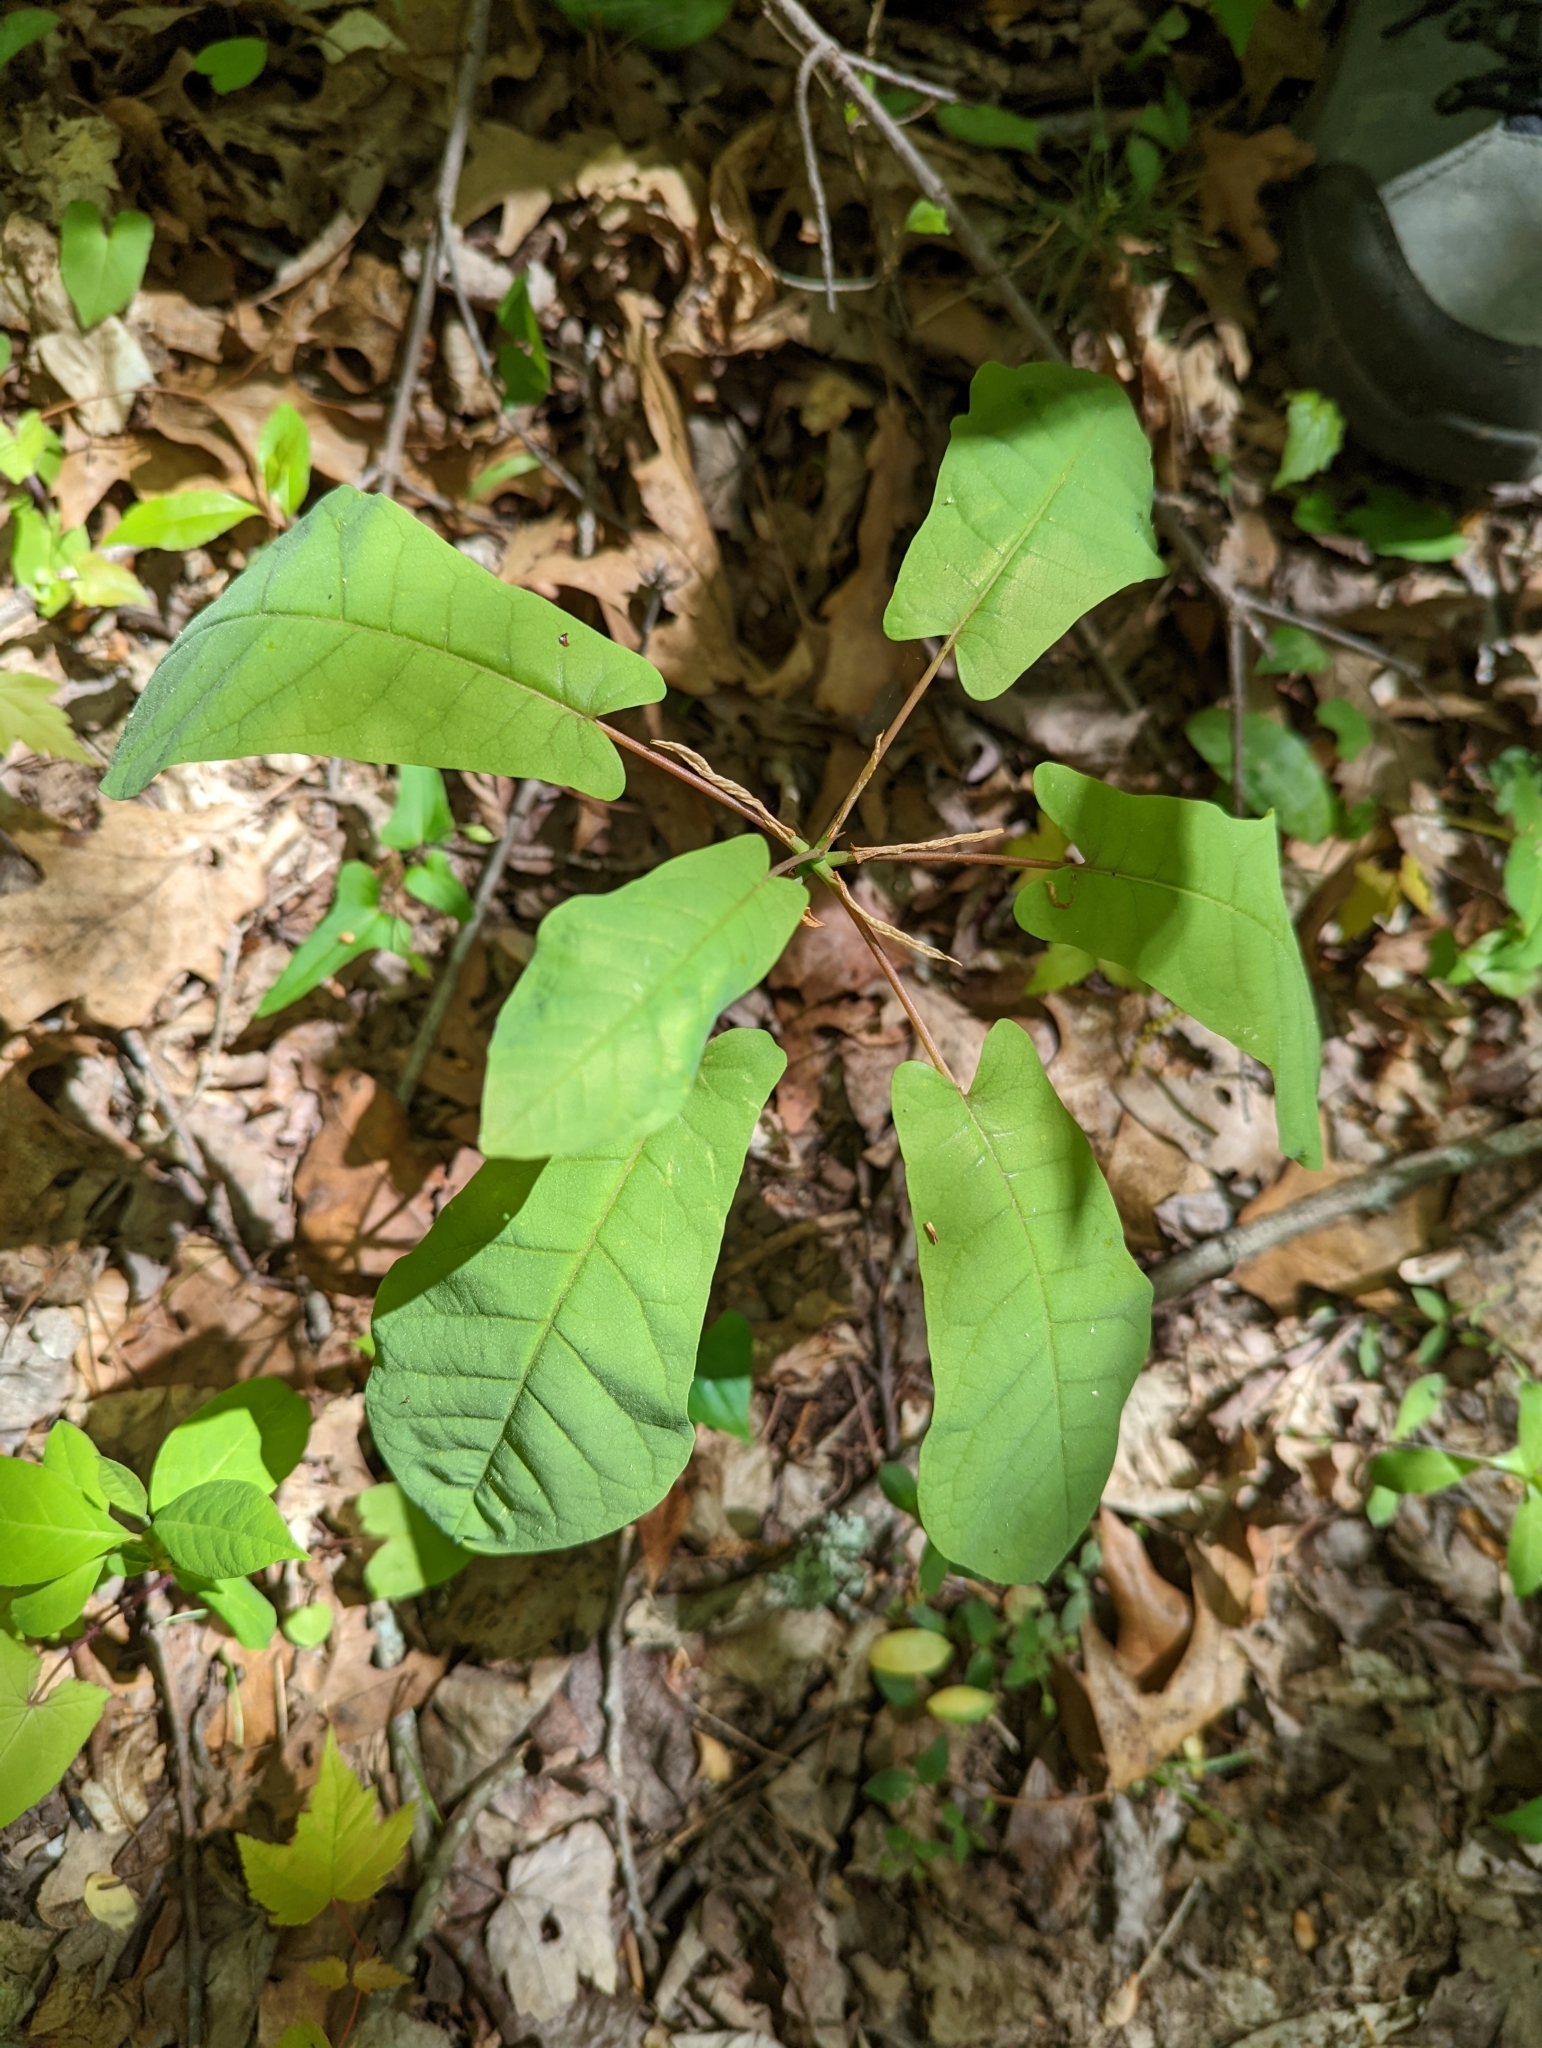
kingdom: Plantae
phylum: Tracheophyta
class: Magnoliopsida
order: Magnoliales
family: Magnoliaceae
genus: Magnolia
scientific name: Magnolia fraseri
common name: Fraser's magnolia
